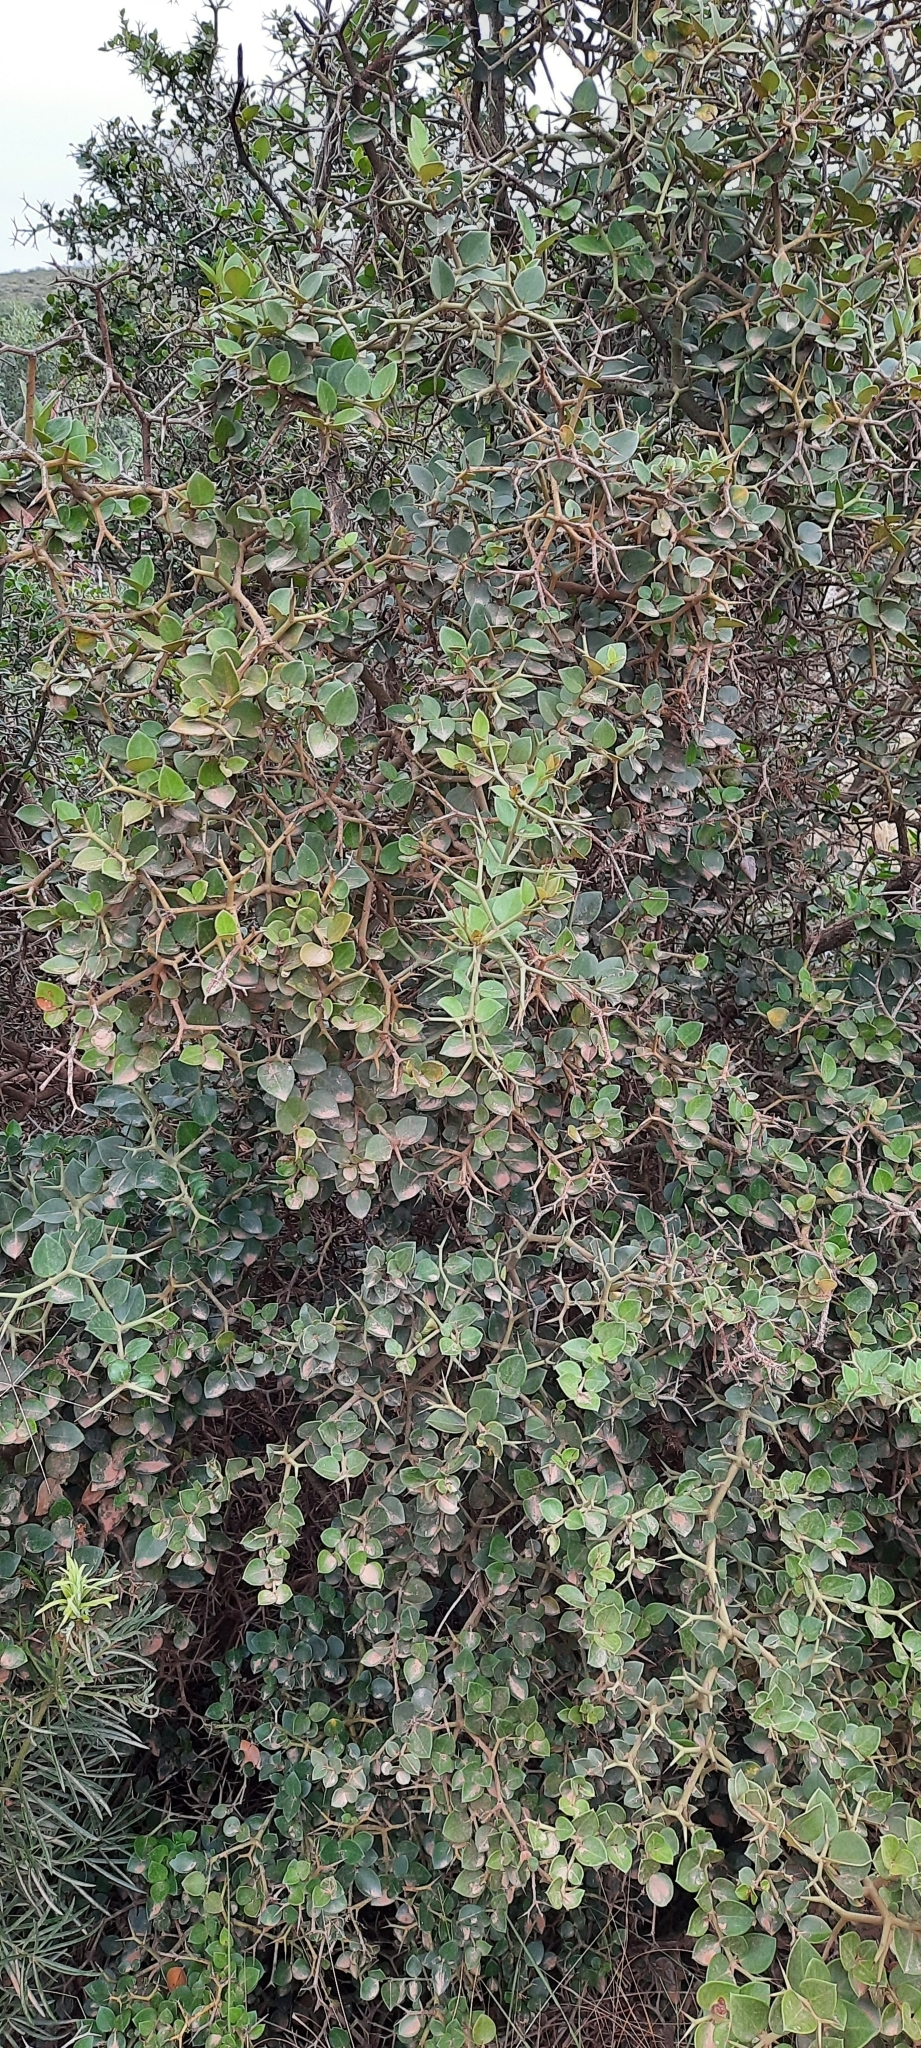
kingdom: Plantae
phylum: Tracheophyta
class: Magnoliopsida
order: Gentianales
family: Apocynaceae
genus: Carissa
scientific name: Carissa bispinosa
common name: Forest num-num
